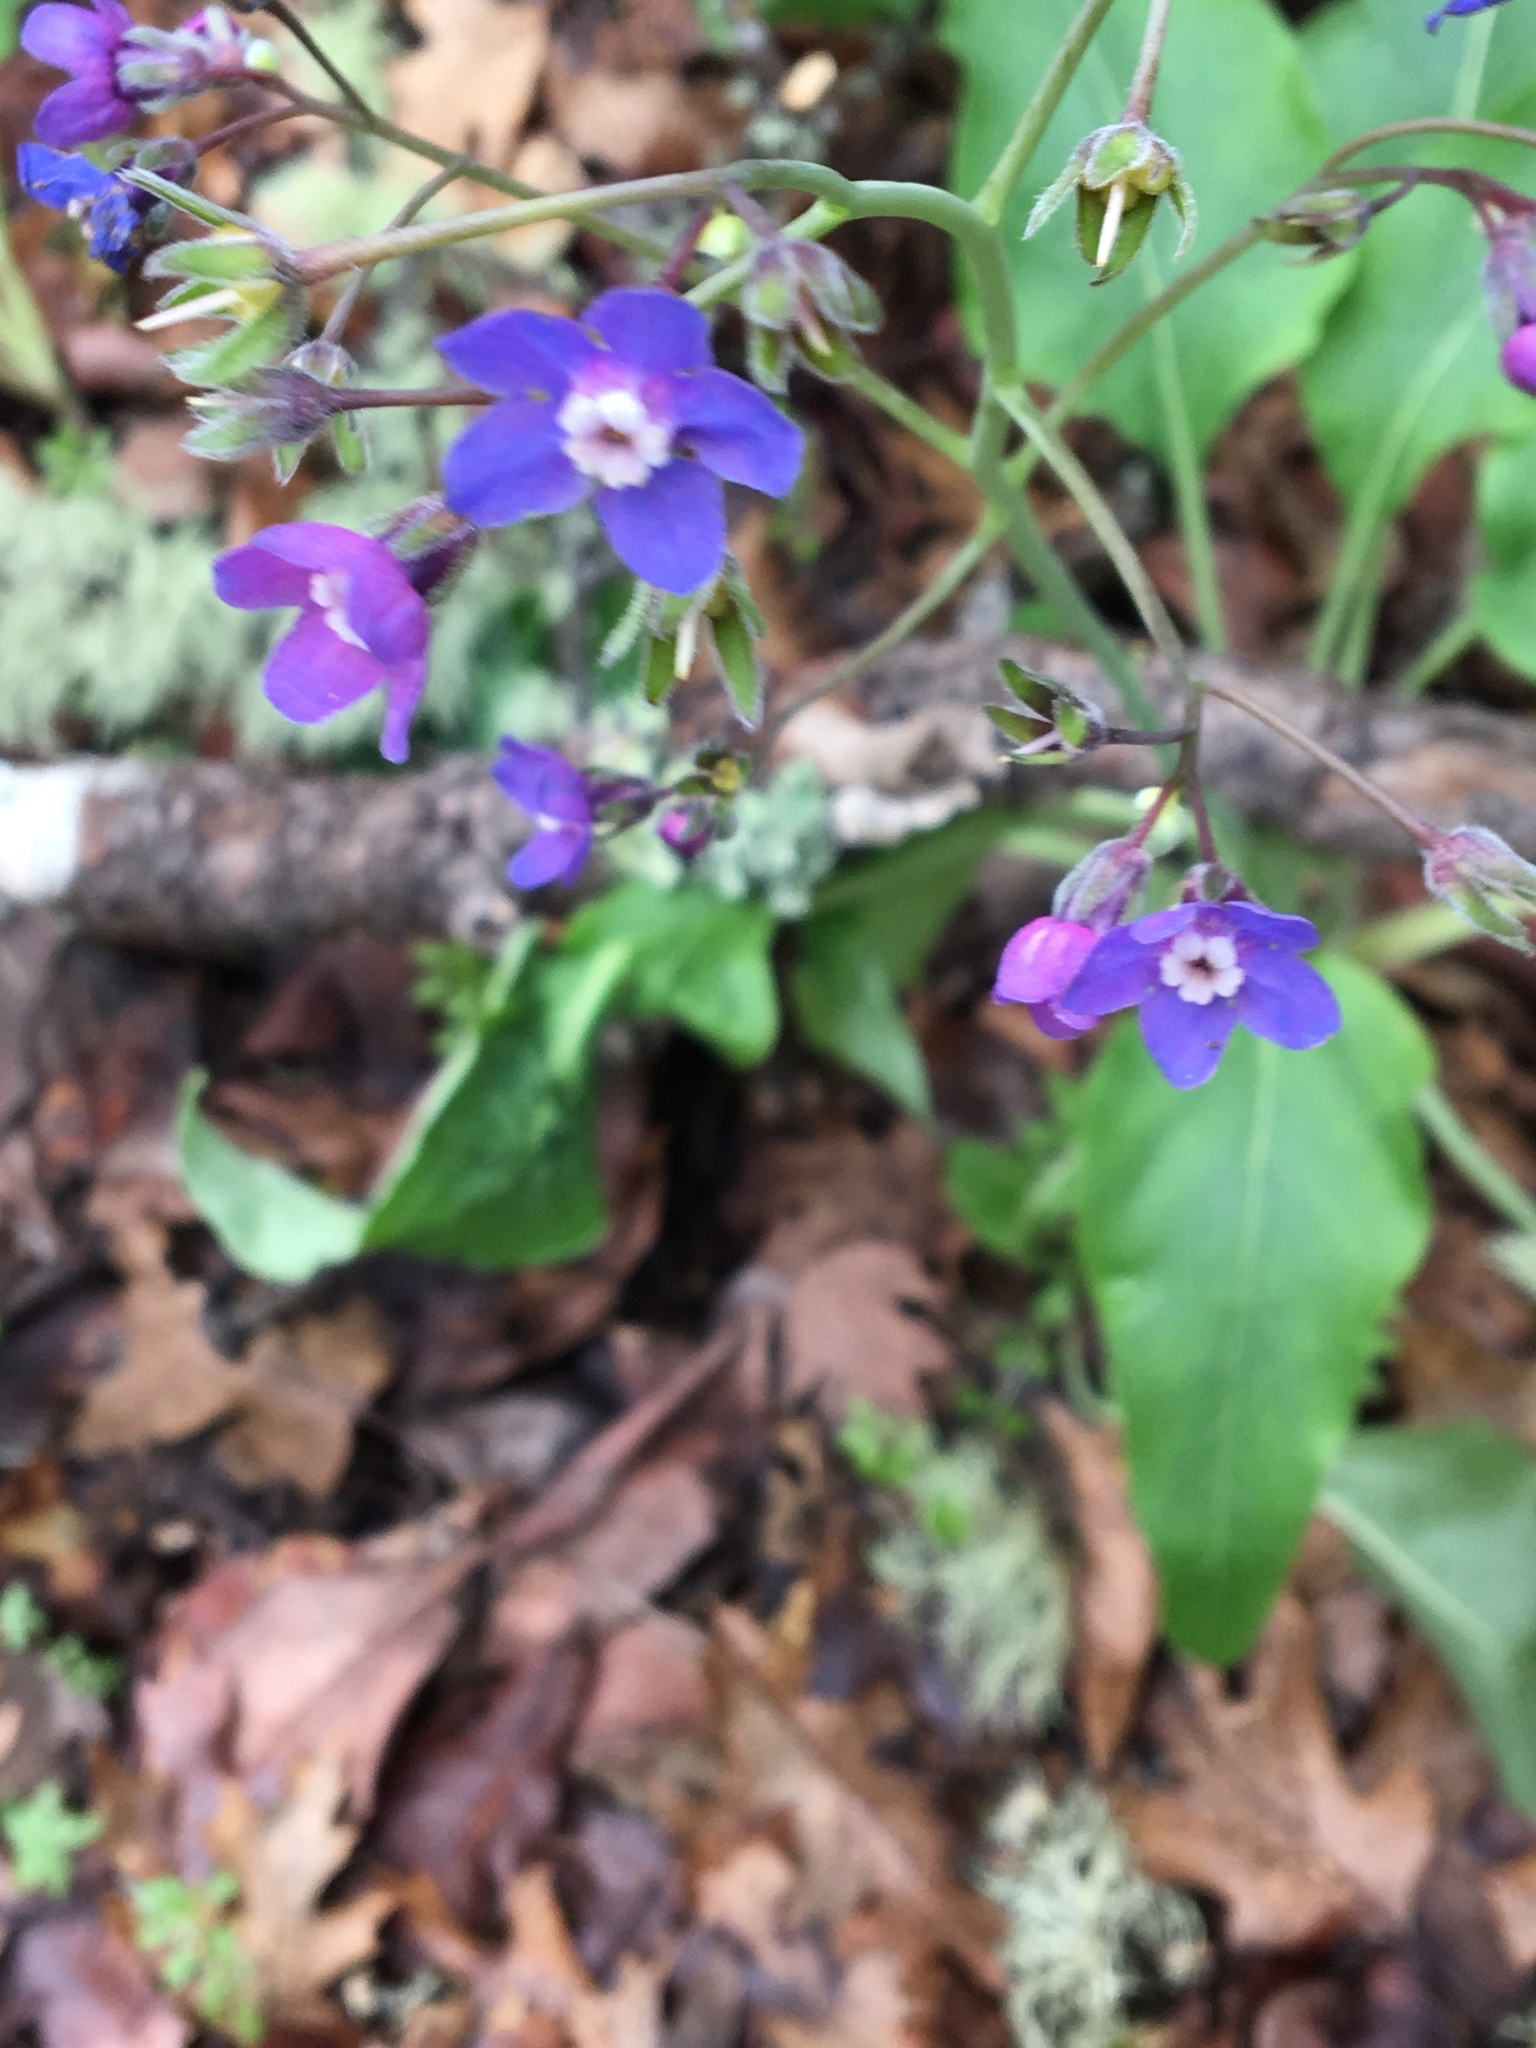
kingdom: Plantae
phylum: Tracheophyta
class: Magnoliopsida
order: Boraginales
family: Boraginaceae
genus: Adelinia
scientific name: Adelinia grande
